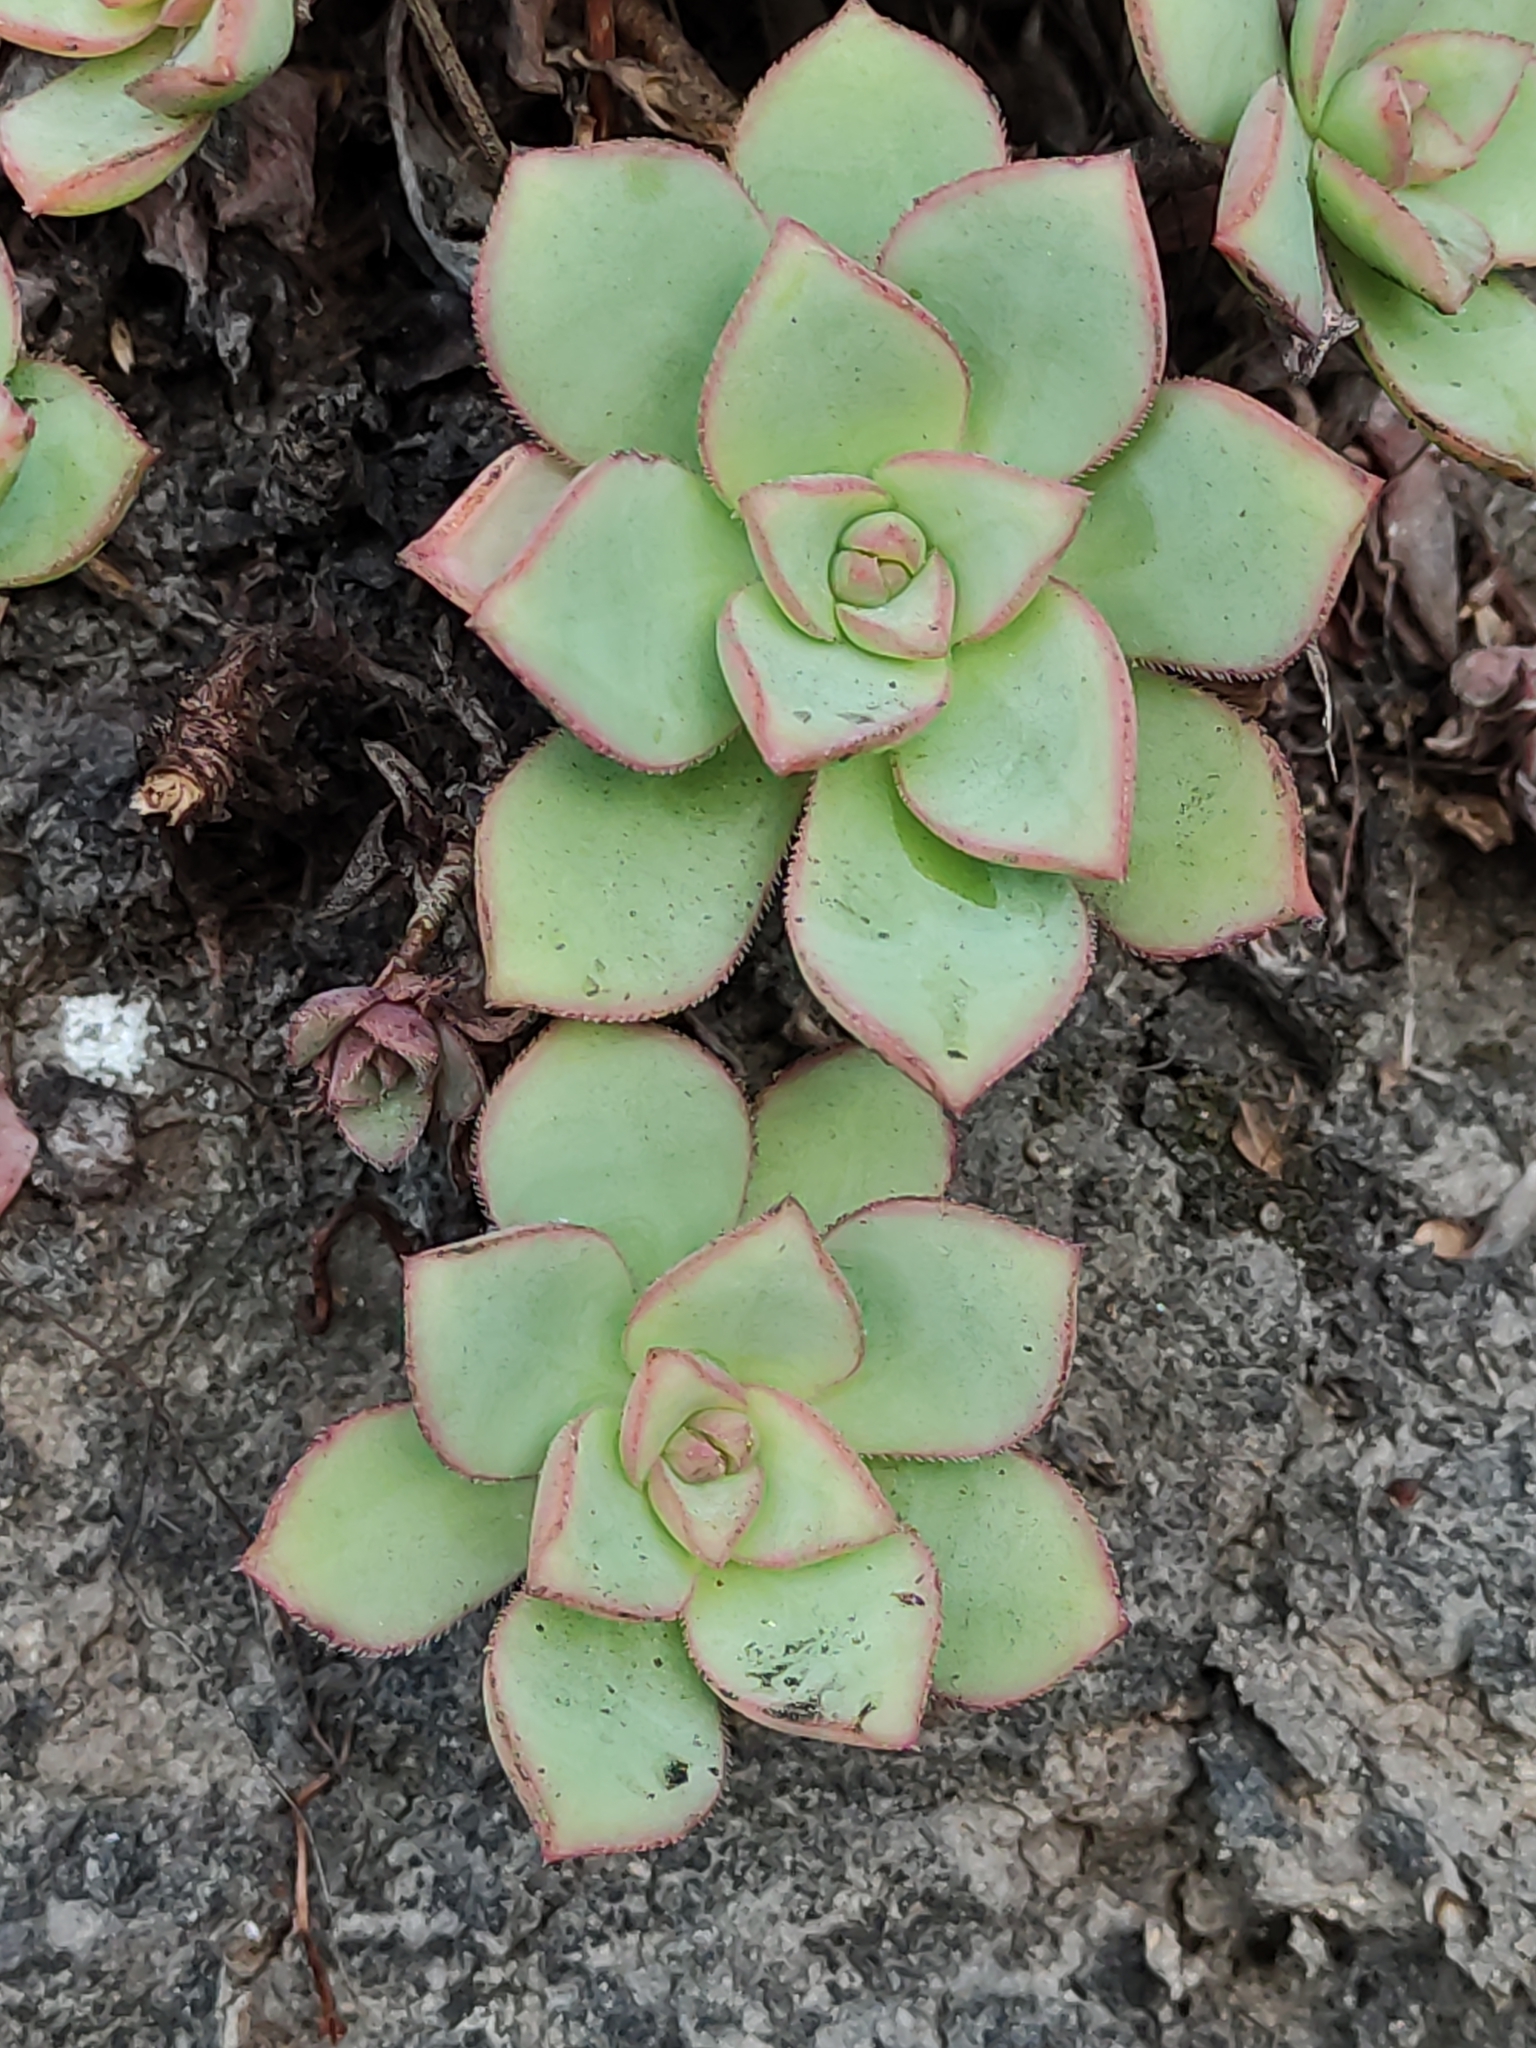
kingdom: Plantae
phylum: Tracheophyta
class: Magnoliopsida
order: Saxifragales
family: Crassulaceae
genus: Aeonium
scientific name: Aeonium haworthii
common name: Haworth's aeonium
